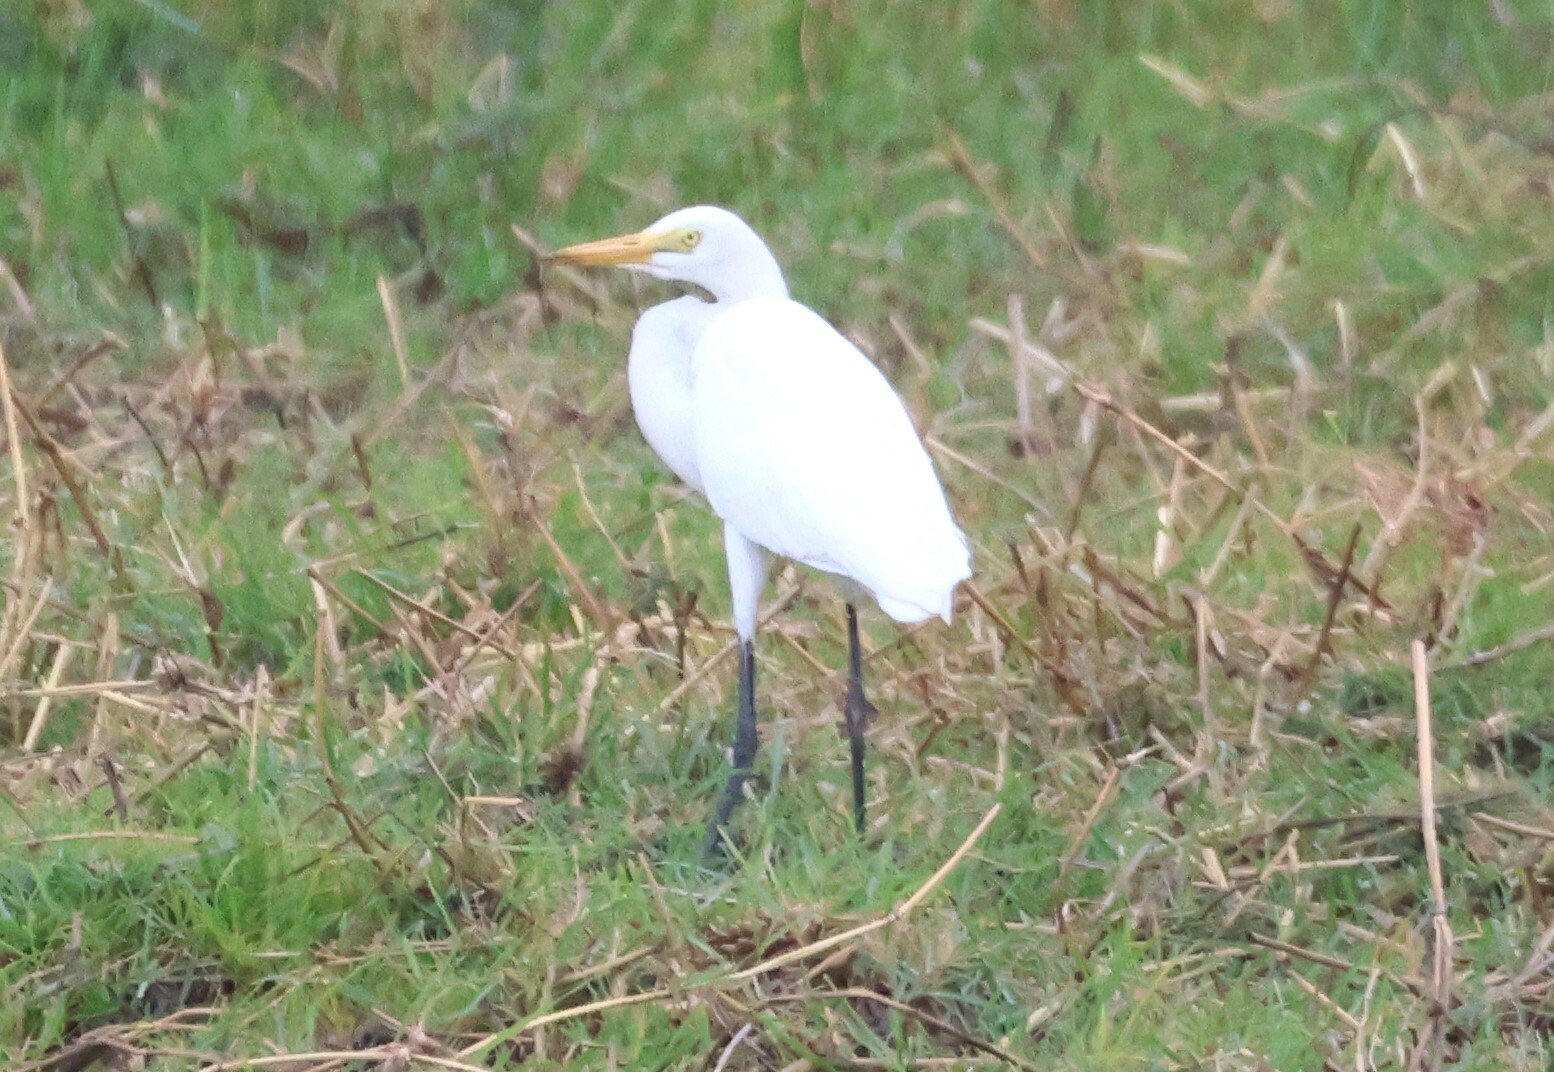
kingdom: Animalia
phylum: Chordata
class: Aves
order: Pelecaniformes
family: Ardeidae
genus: Egretta
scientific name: Egretta intermedia
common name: Intermediate egret
